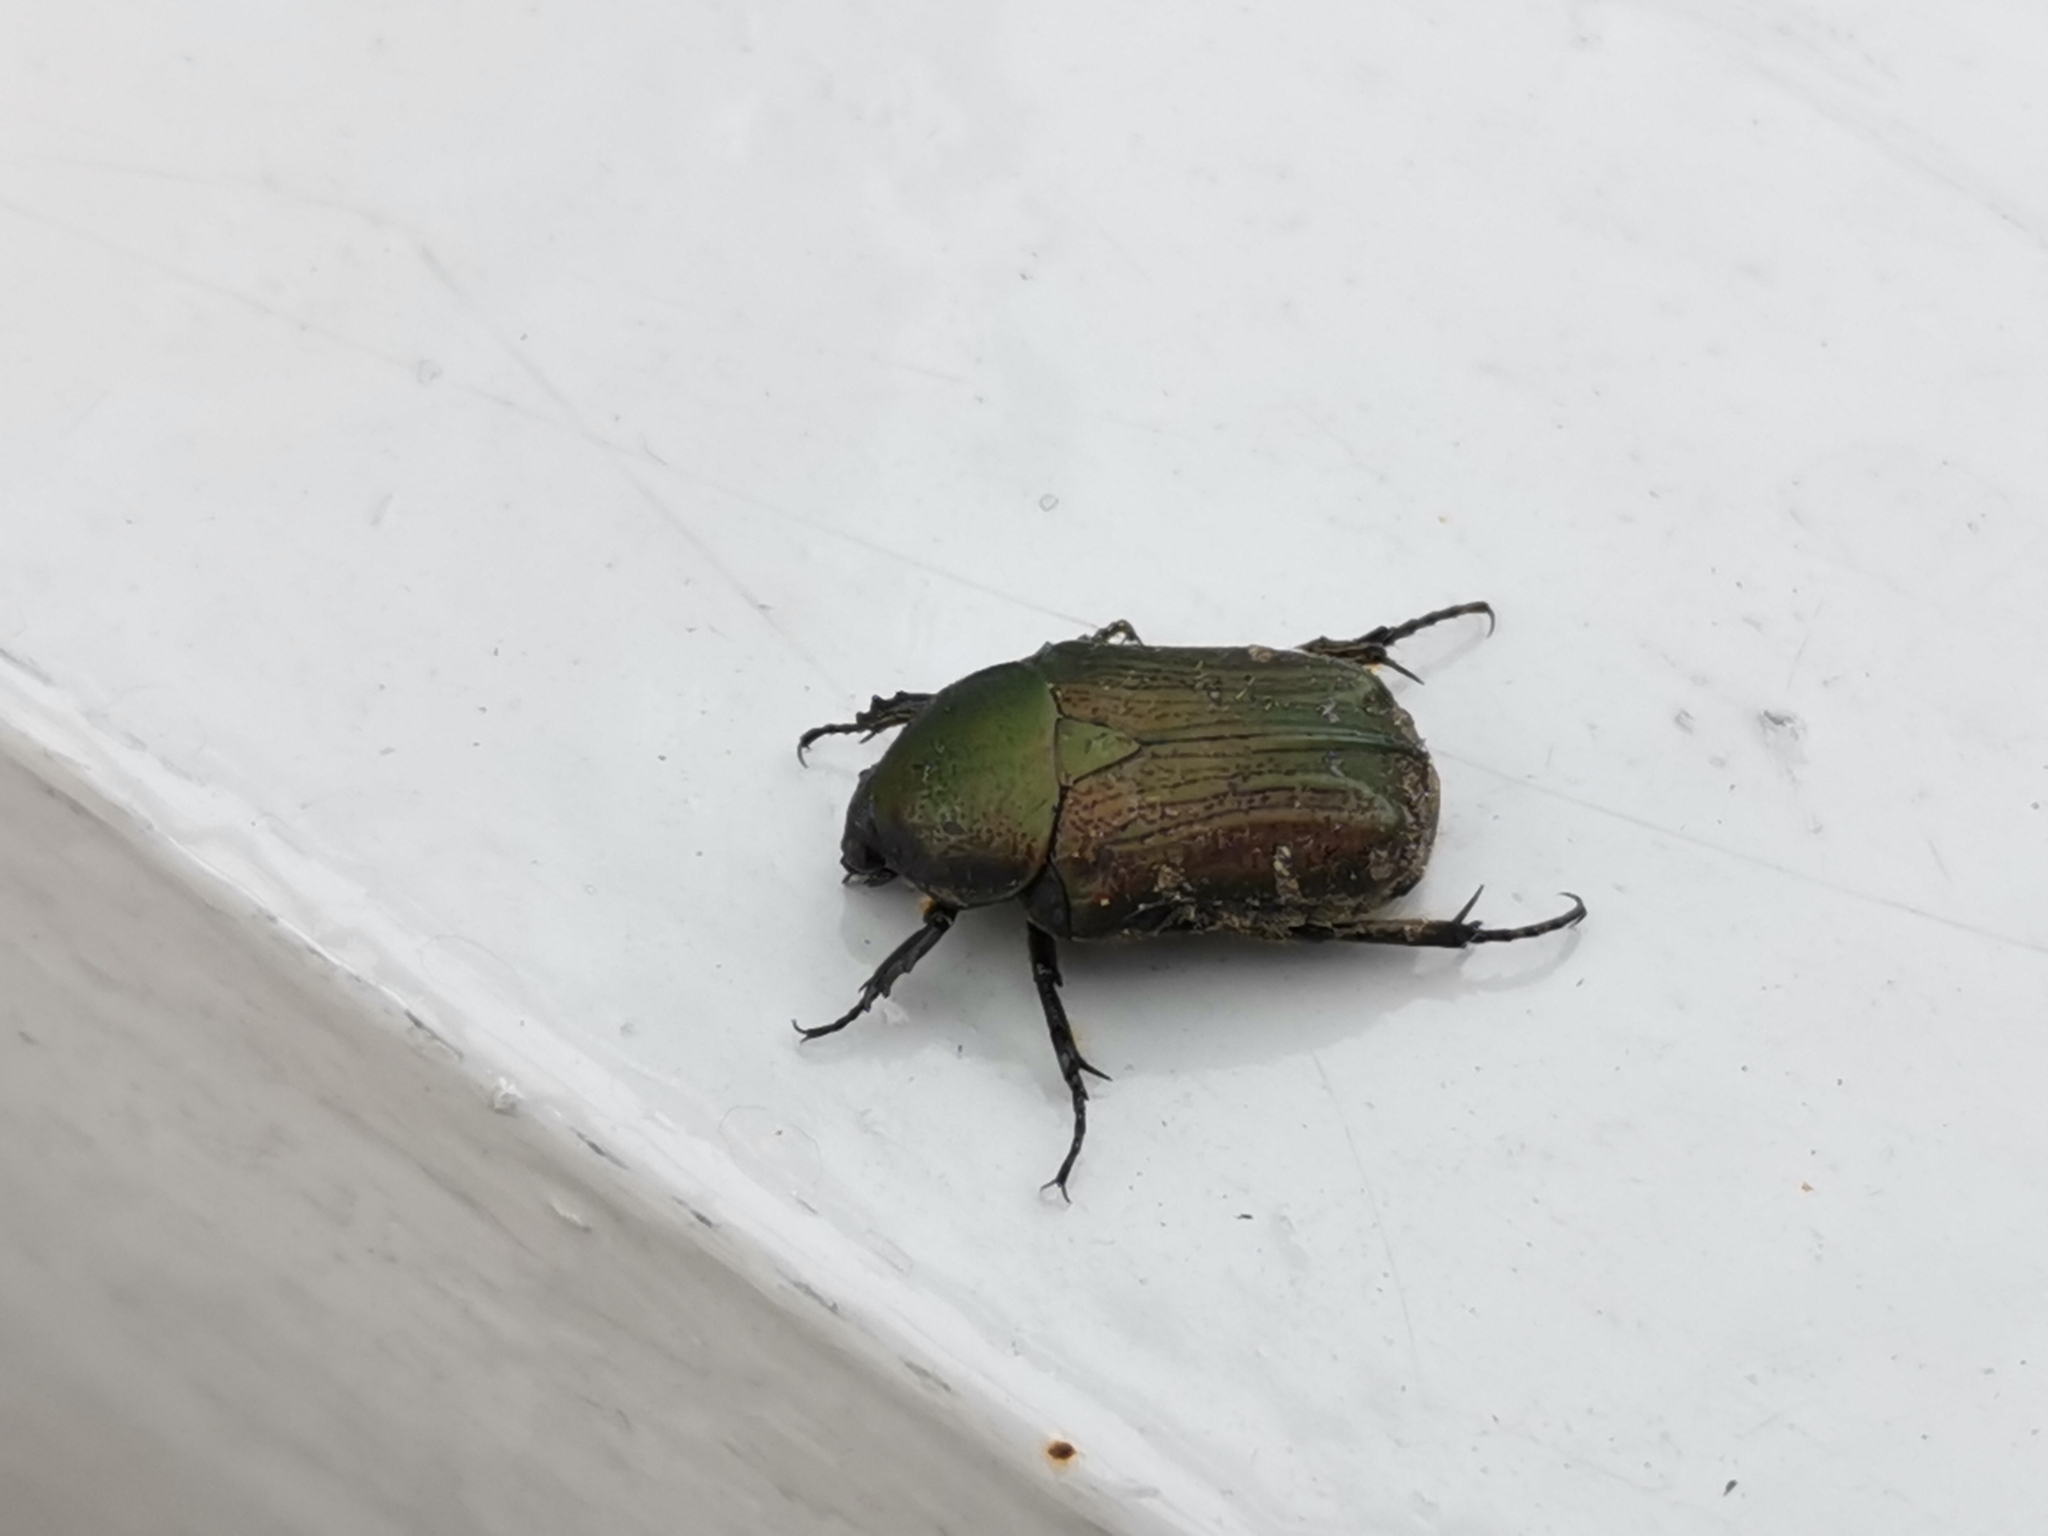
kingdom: Animalia
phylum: Arthropoda
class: Insecta
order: Coleoptera
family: Scarabaeidae
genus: Gametis
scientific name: Gametis jucunda
